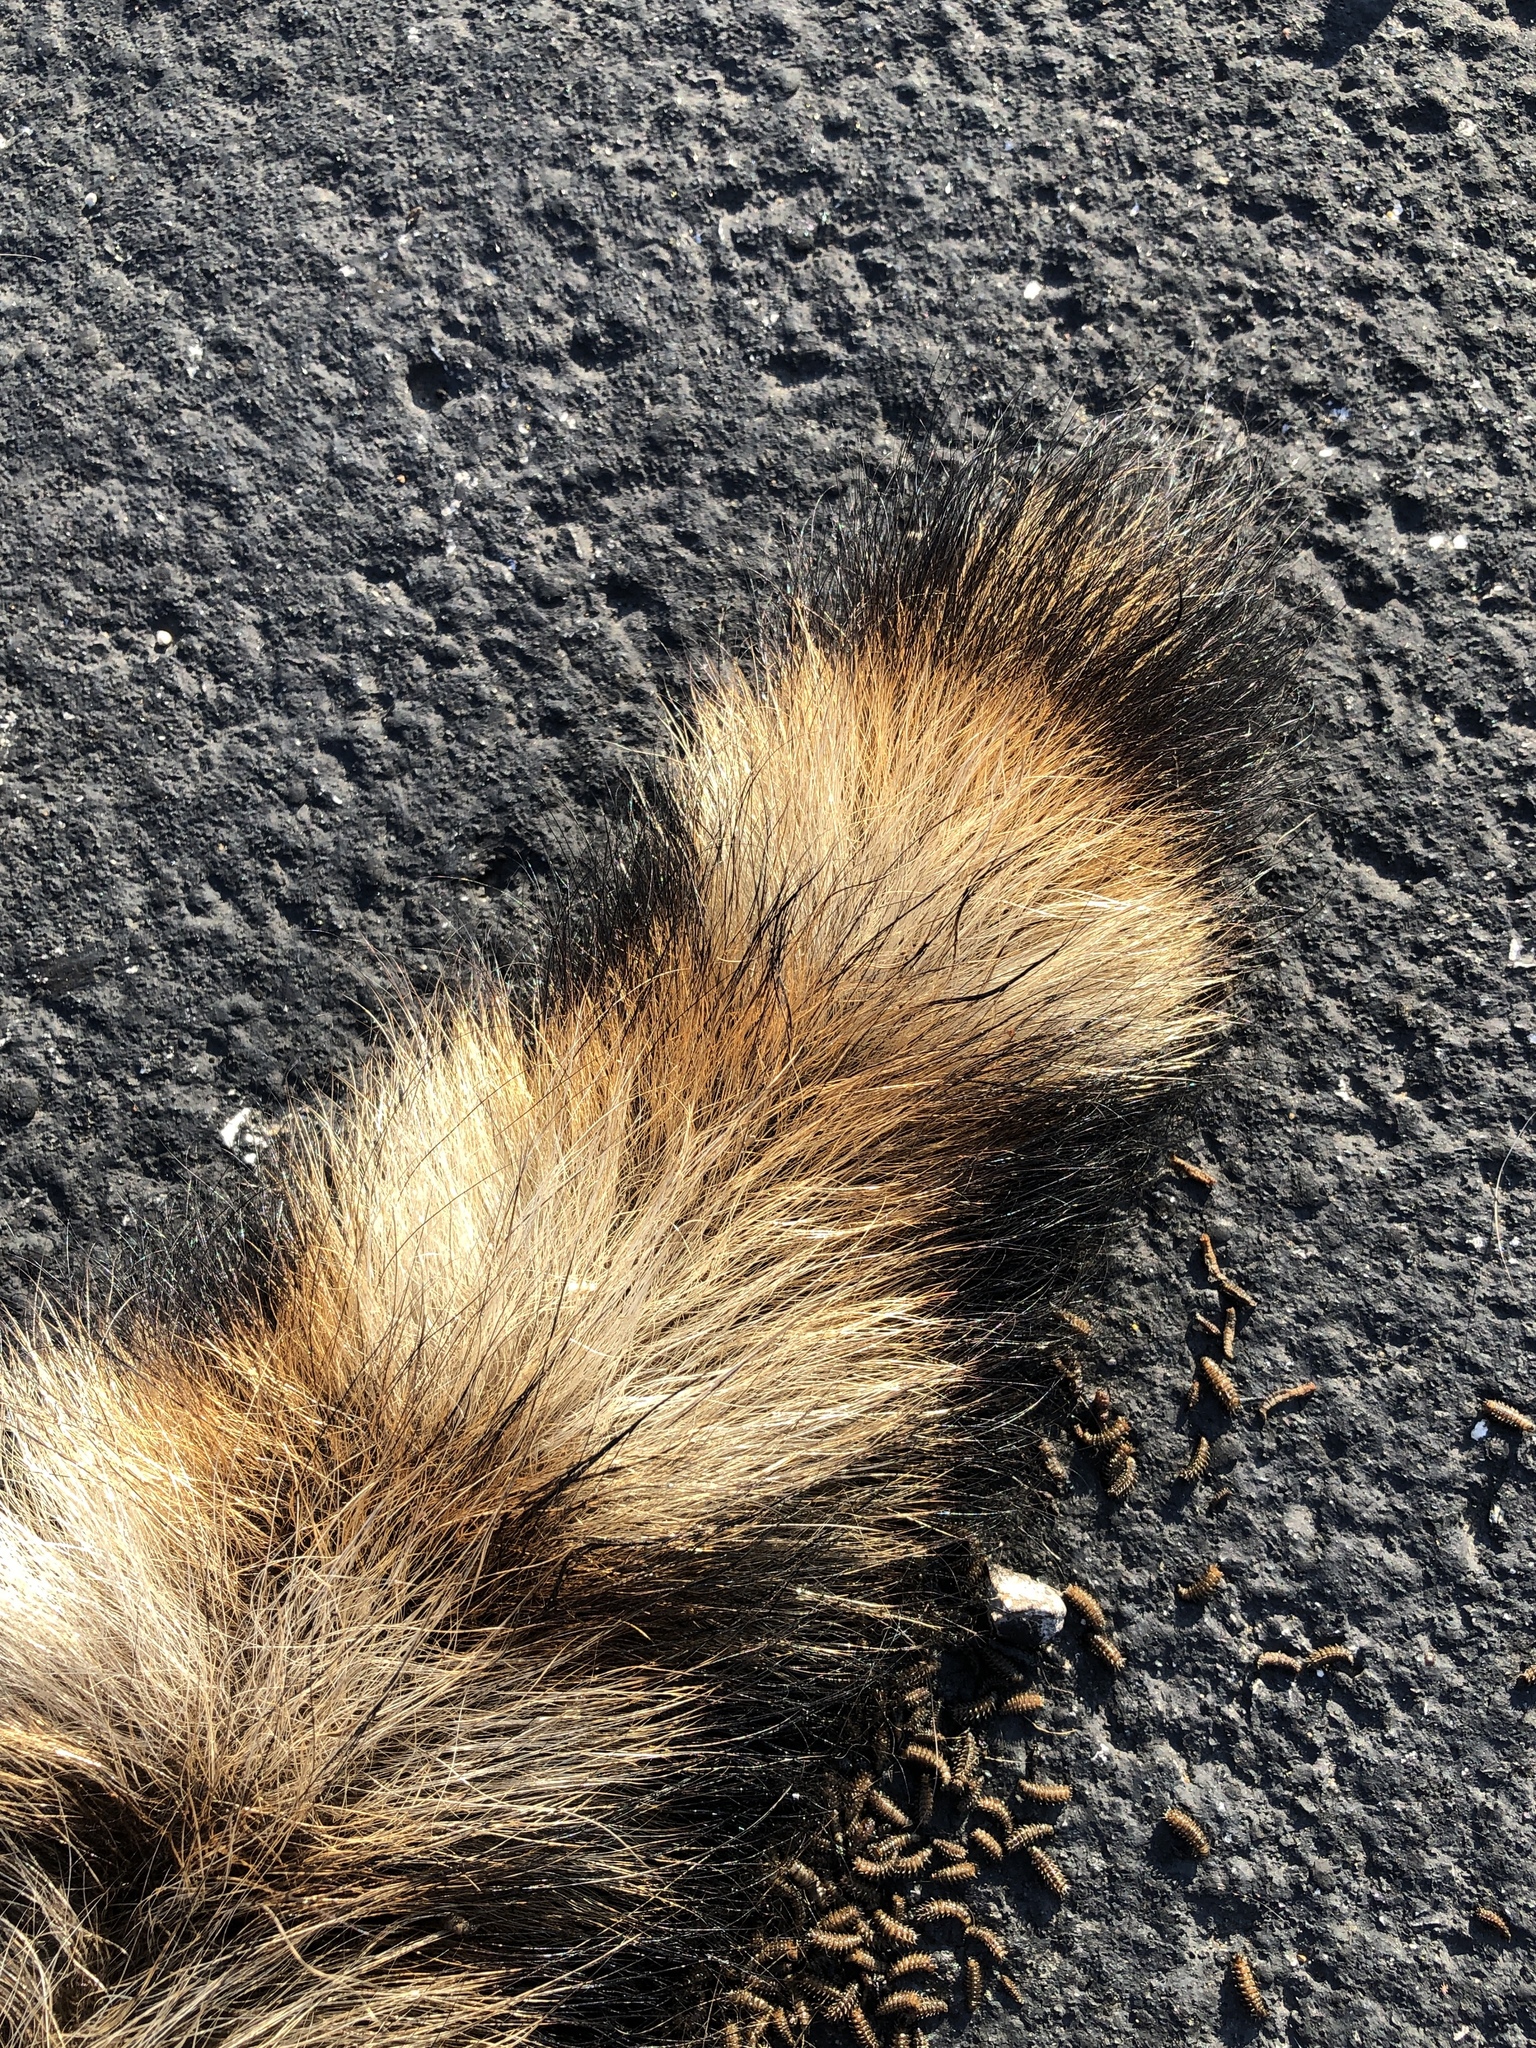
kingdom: Animalia
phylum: Chordata
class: Mammalia
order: Carnivora
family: Procyonidae
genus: Procyon
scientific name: Procyon lotor
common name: Raccoon
